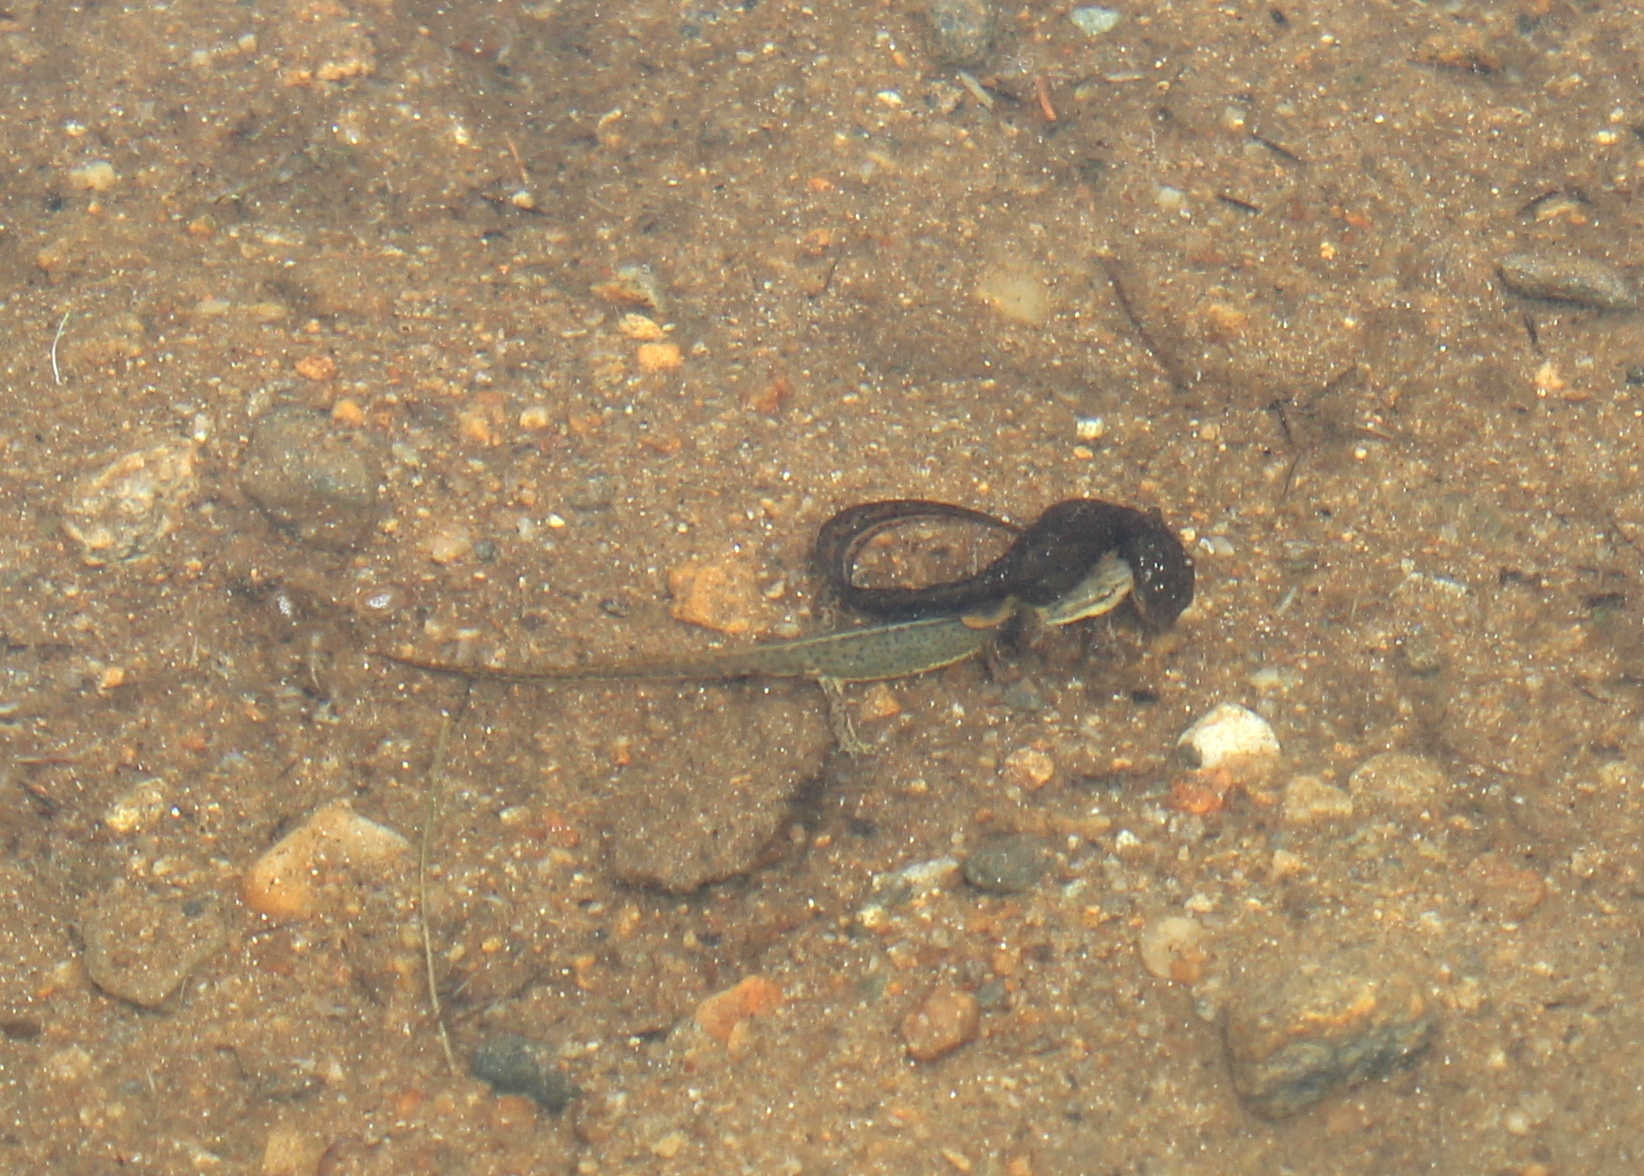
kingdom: Animalia
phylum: Chordata
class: Amphibia
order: Caudata
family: Salamandridae
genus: Notophthalmus
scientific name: Notophthalmus viridescens
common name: Eastern newt
